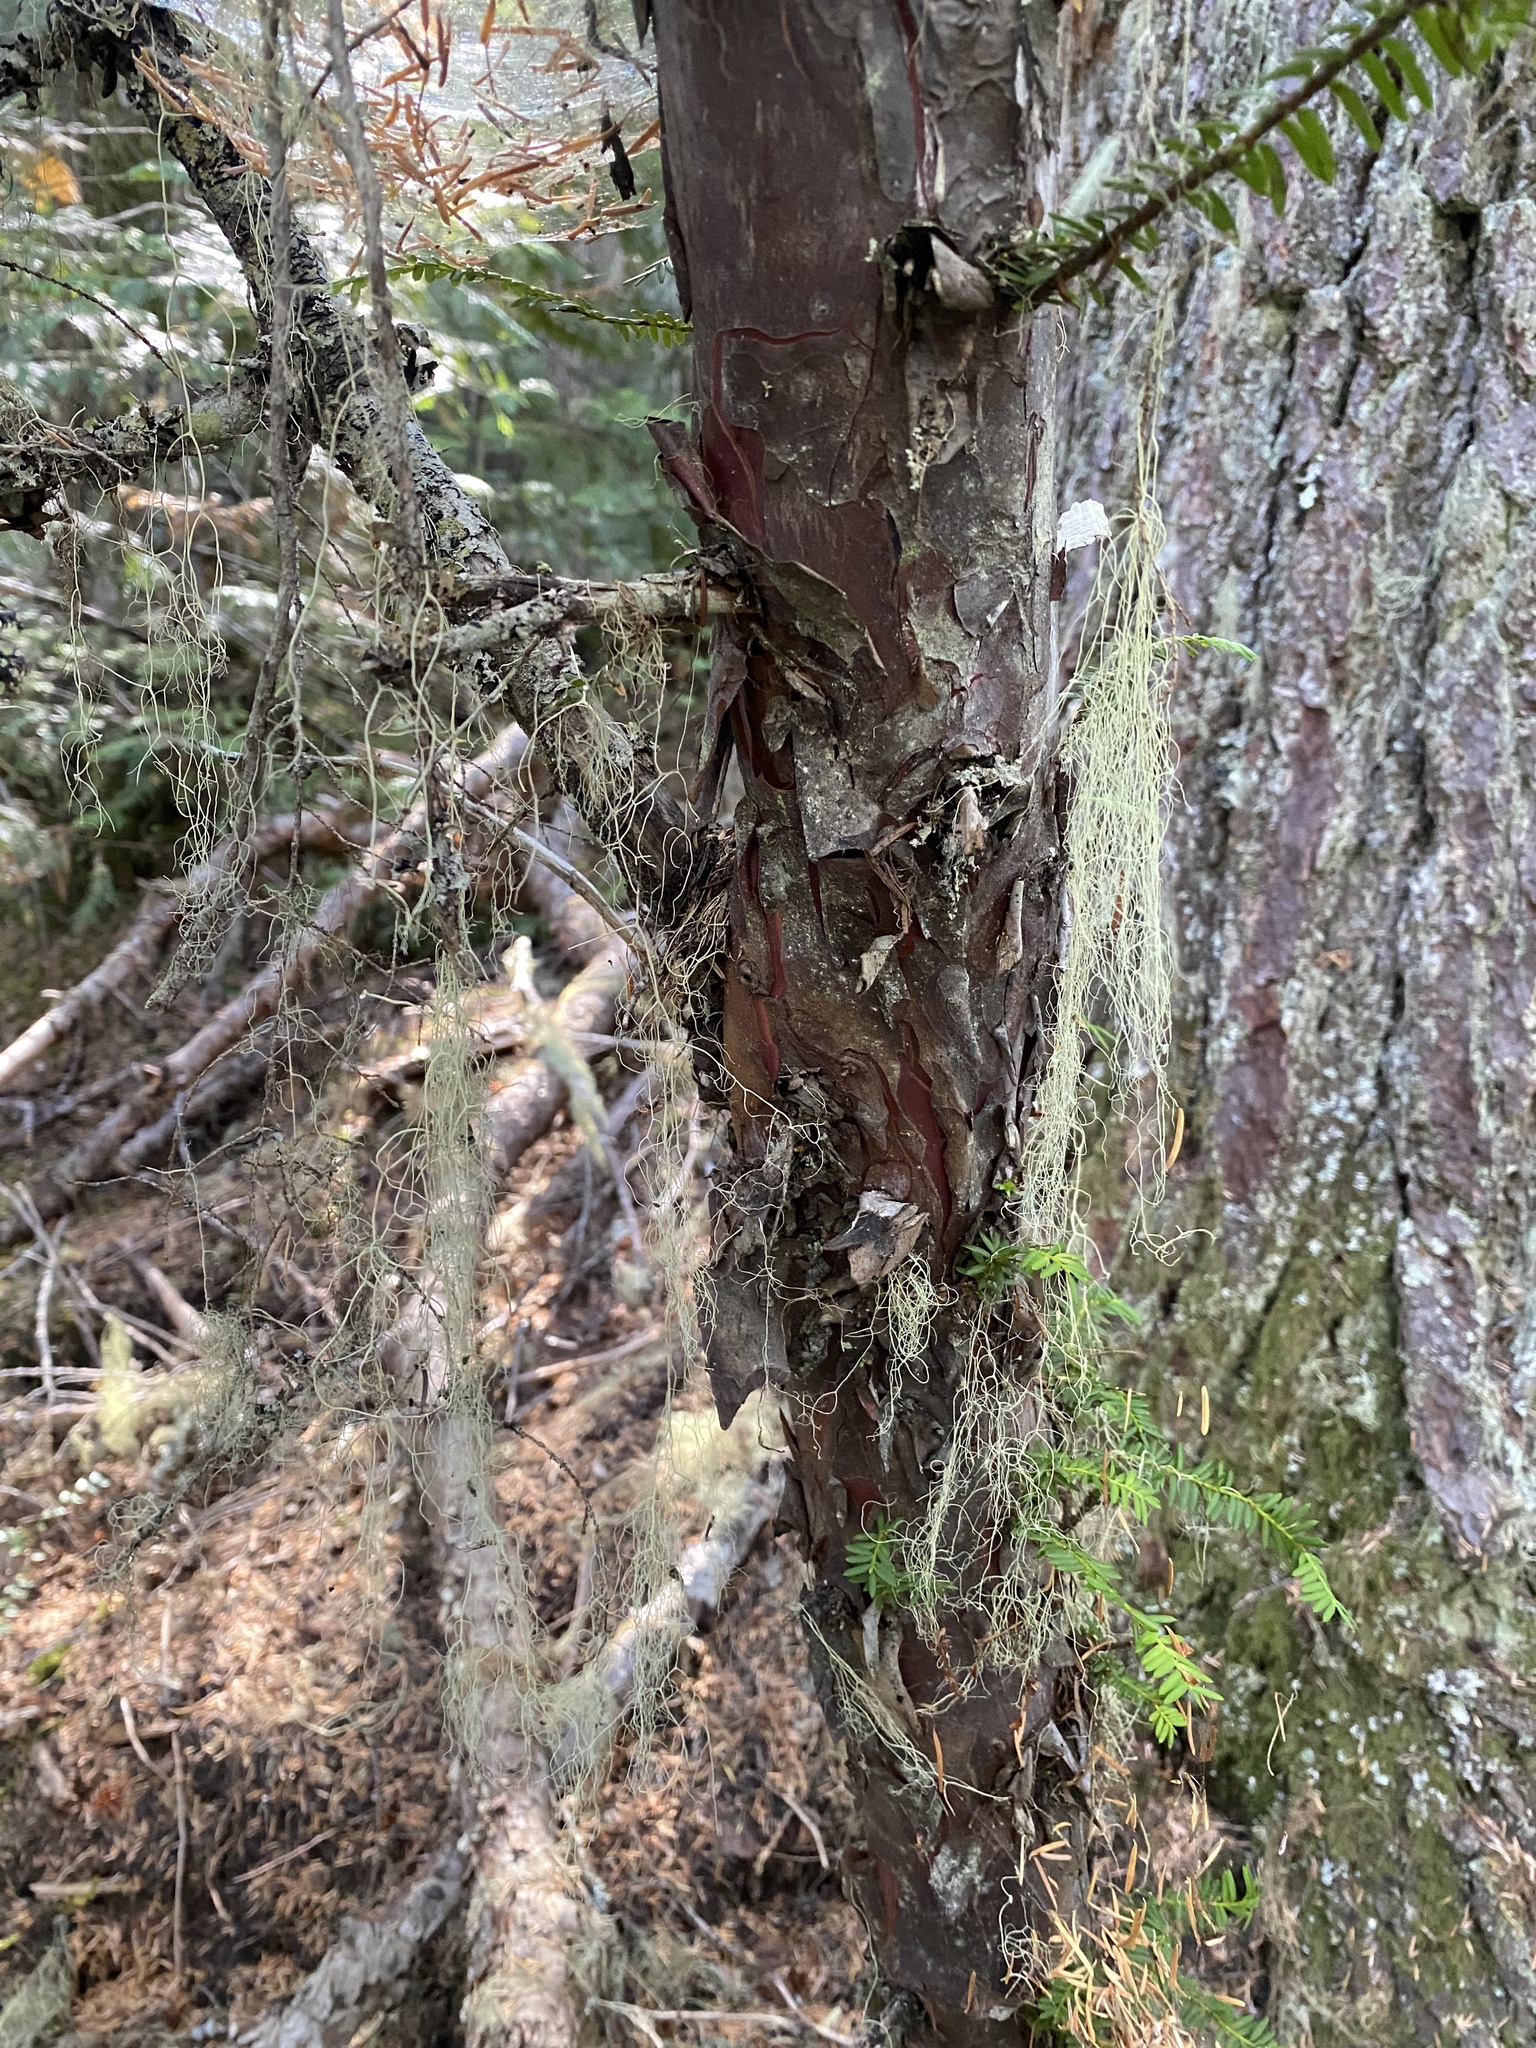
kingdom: Plantae
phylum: Tracheophyta
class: Pinopsida
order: Pinales
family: Taxaceae
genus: Taxus
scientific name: Taxus brevifolia
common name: Pacific yew
